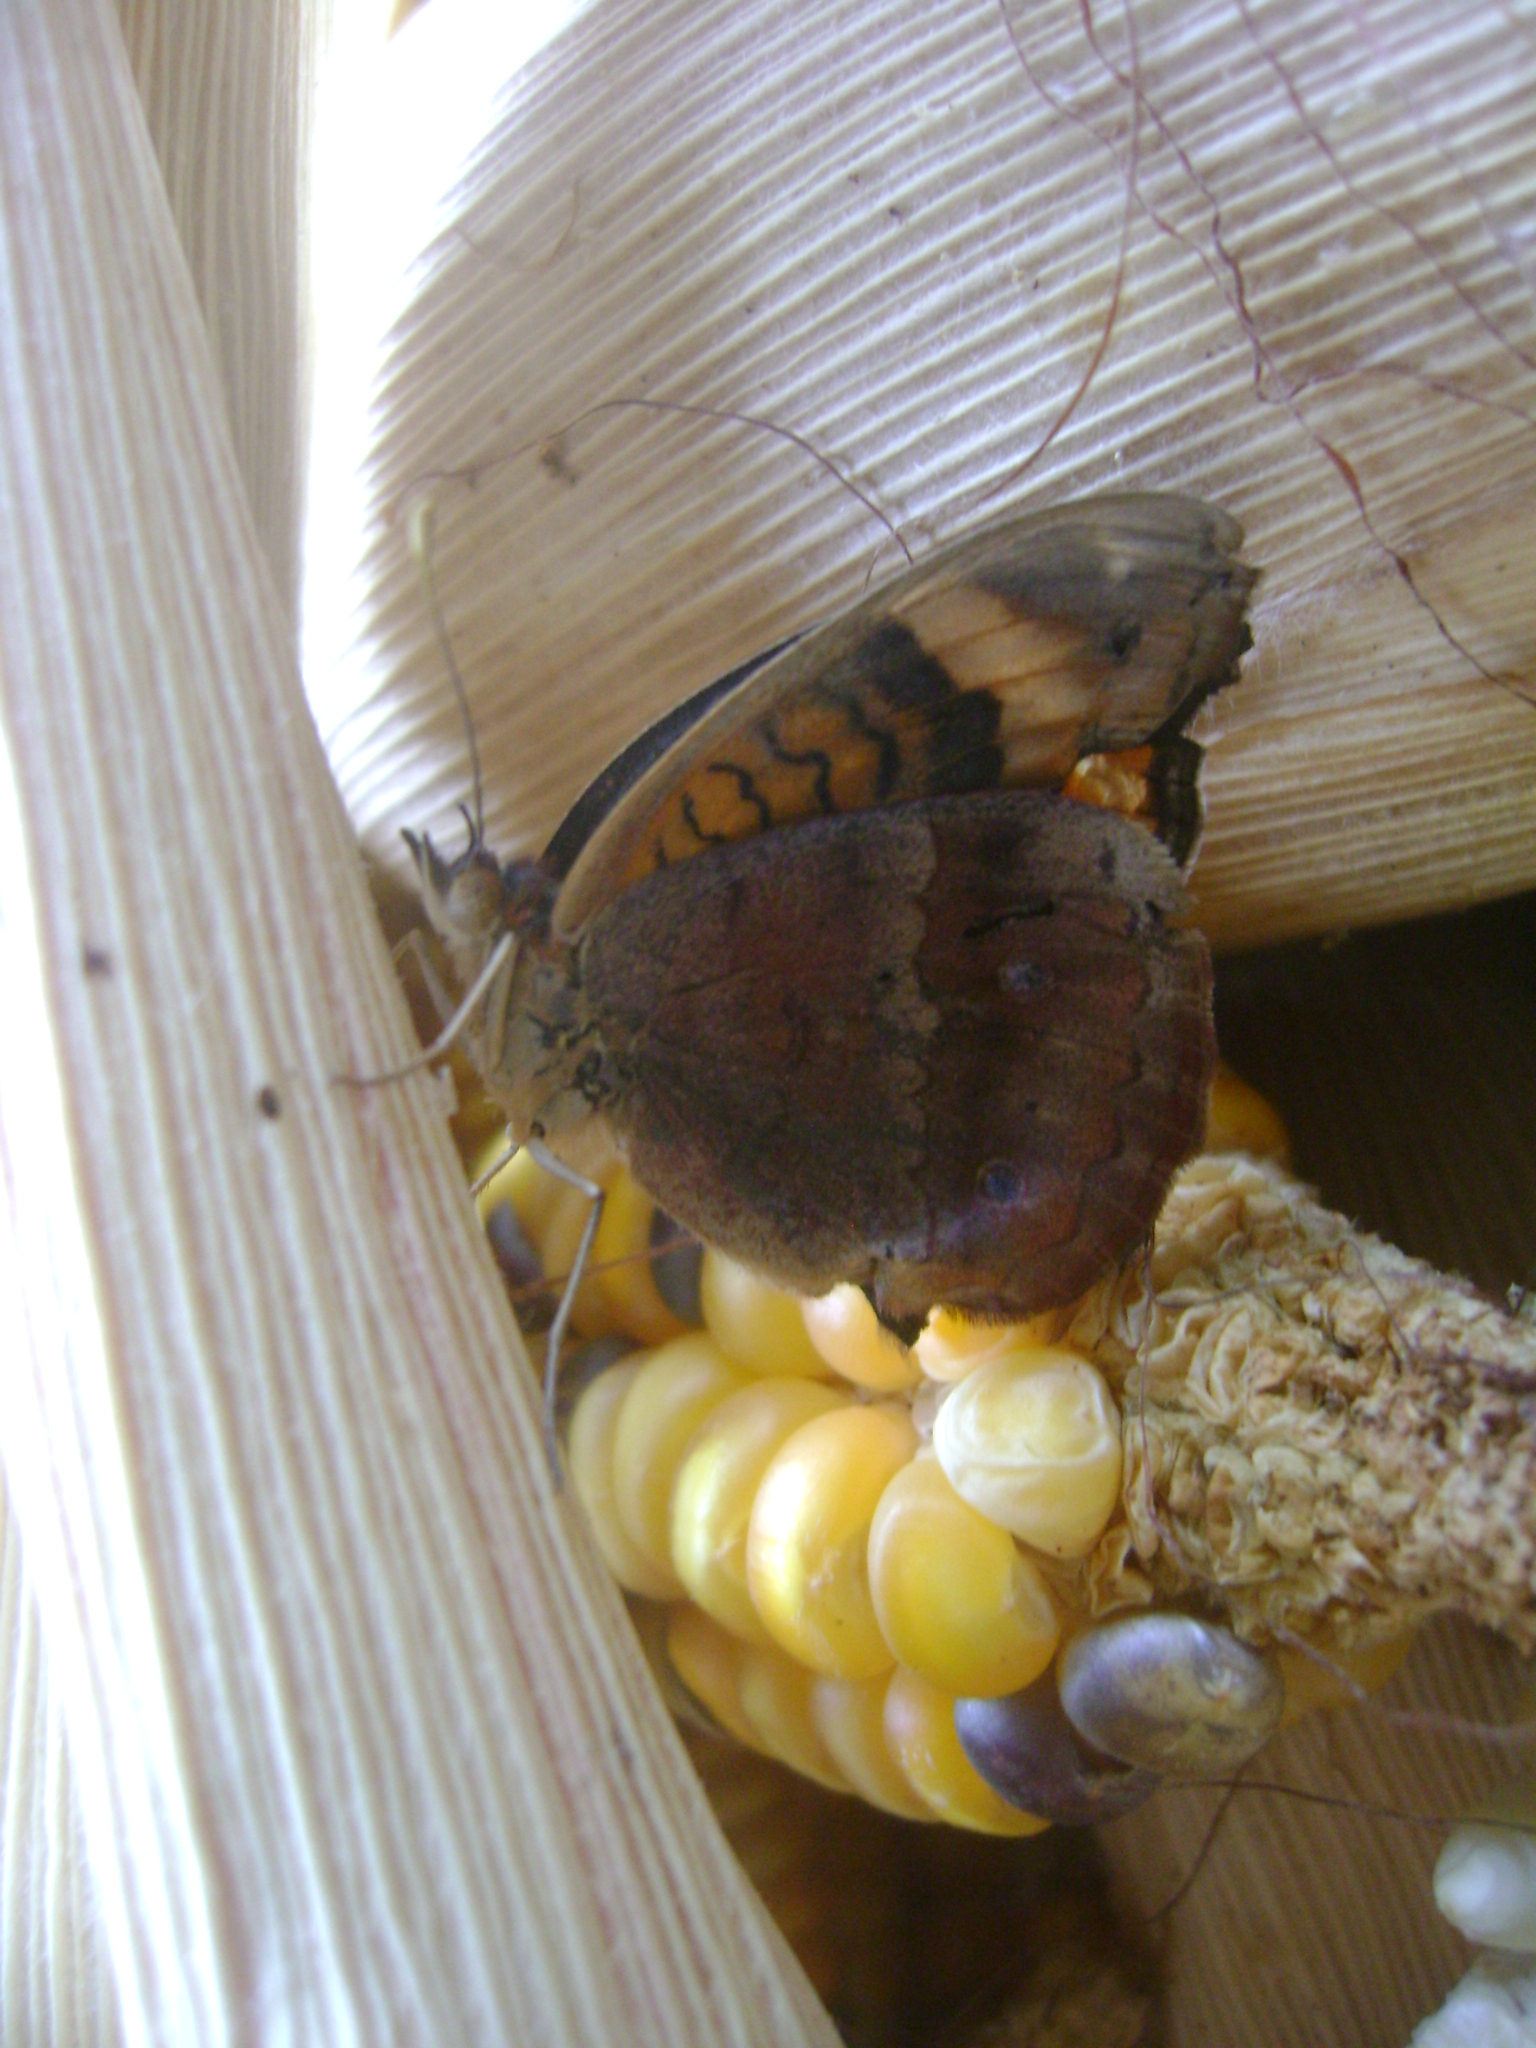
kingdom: Animalia
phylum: Arthropoda
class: Insecta
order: Lepidoptera
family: Nymphalidae
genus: Junonia
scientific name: Junonia stemosa
